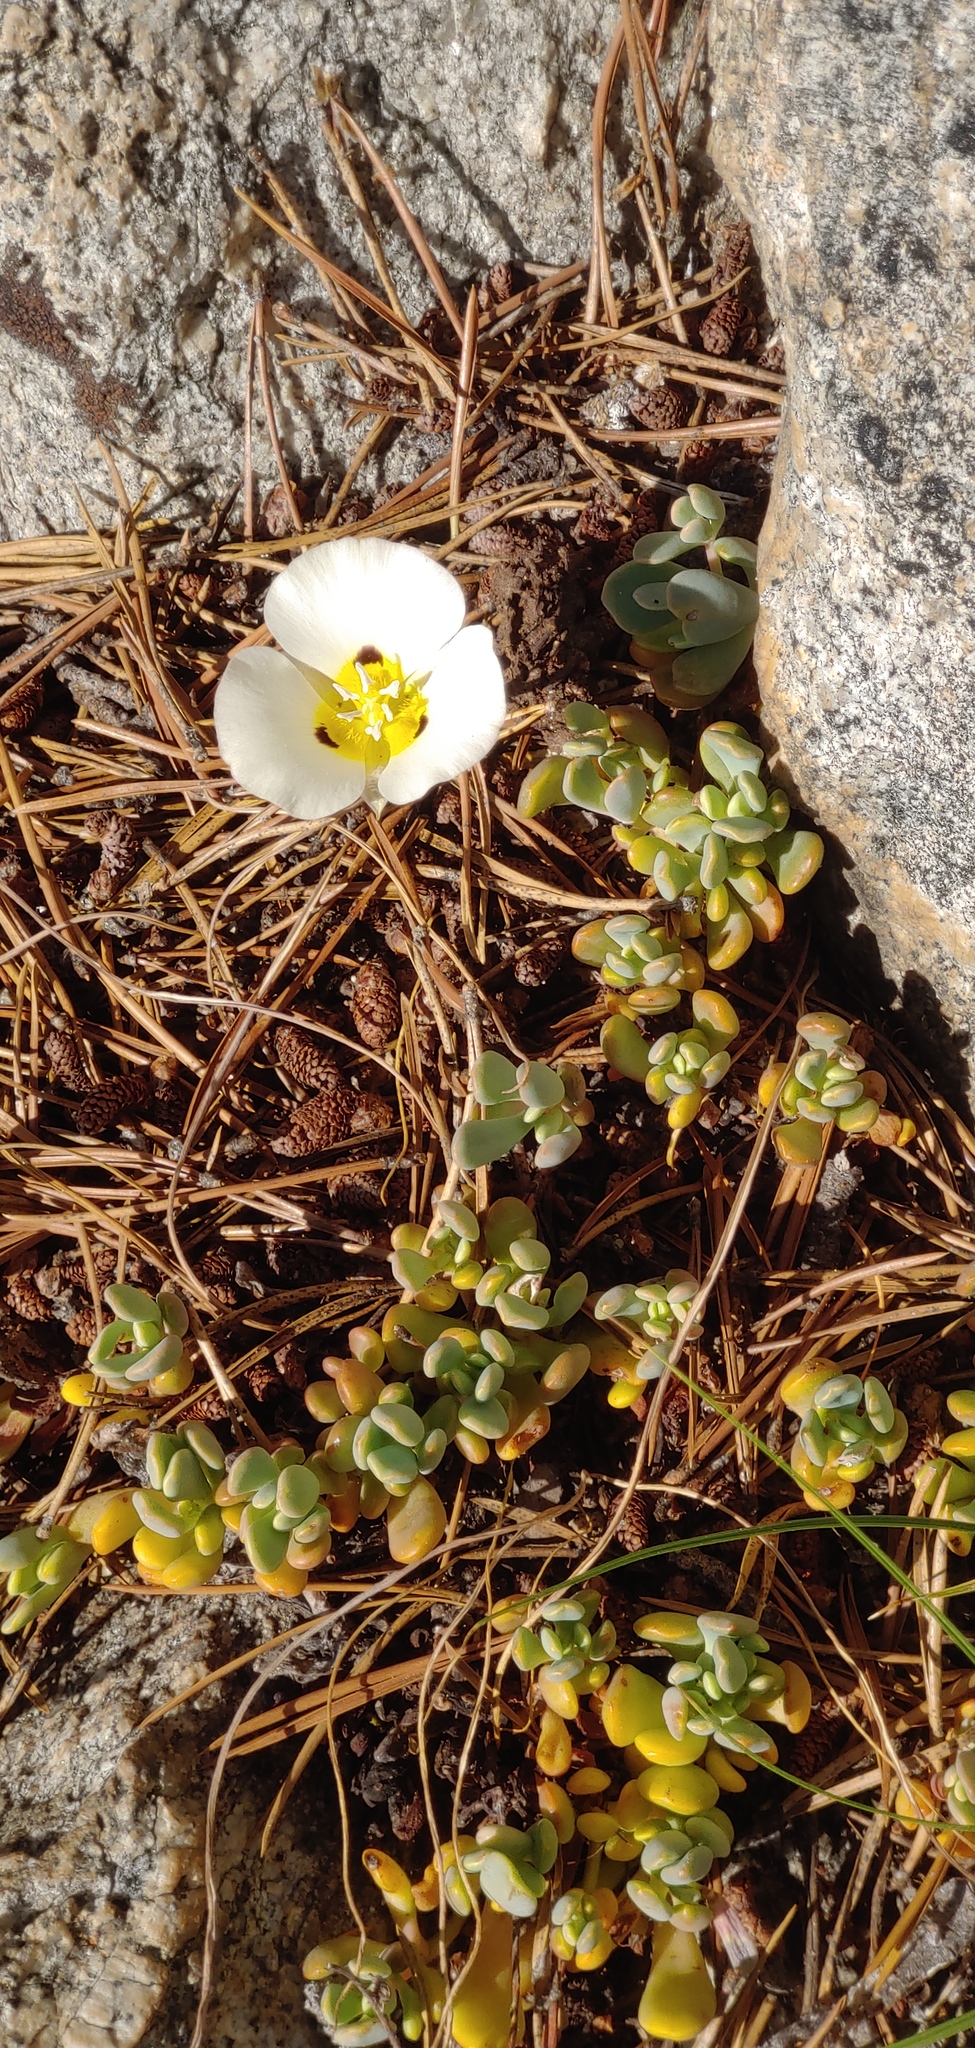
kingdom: Plantae
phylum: Tracheophyta
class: Liliopsida
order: Liliales
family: Liliaceae
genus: Calochortus
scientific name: Calochortus leichtlinii
